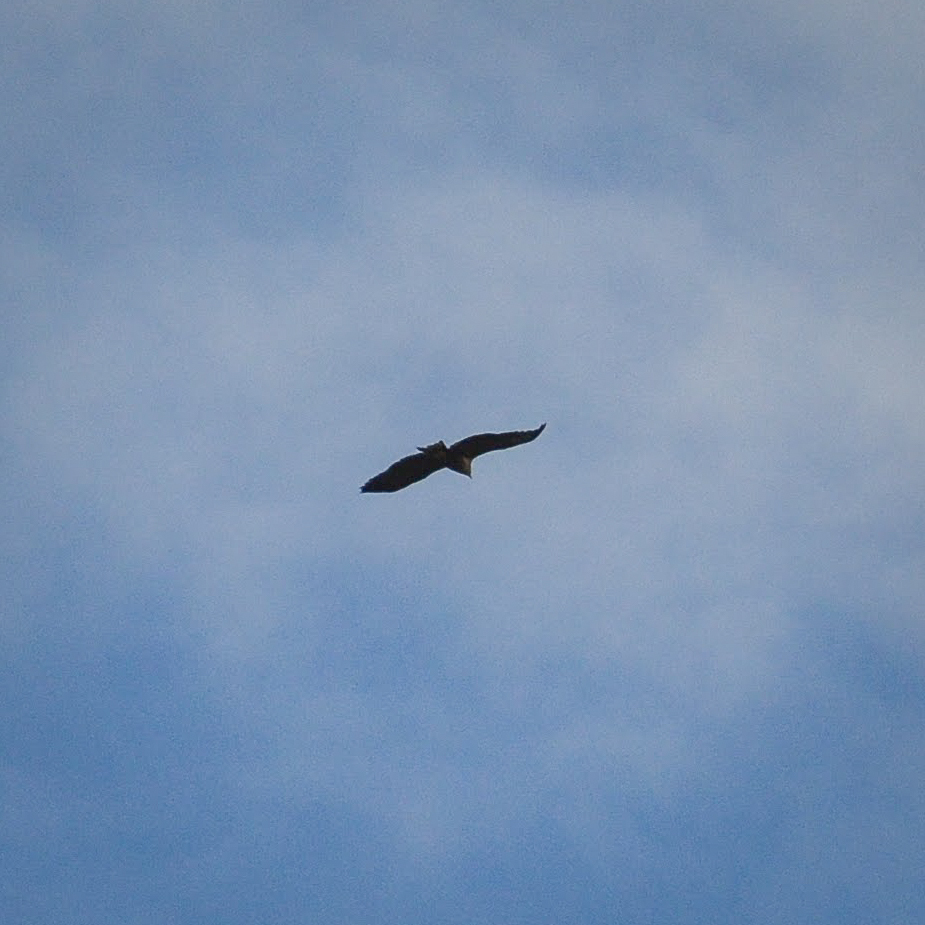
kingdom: Animalia
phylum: Chordata
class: Aves
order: Accipitriformes
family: Accipitridae
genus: Haliaeetus
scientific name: Haliaeetus albicilla
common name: White-tailed eagle
